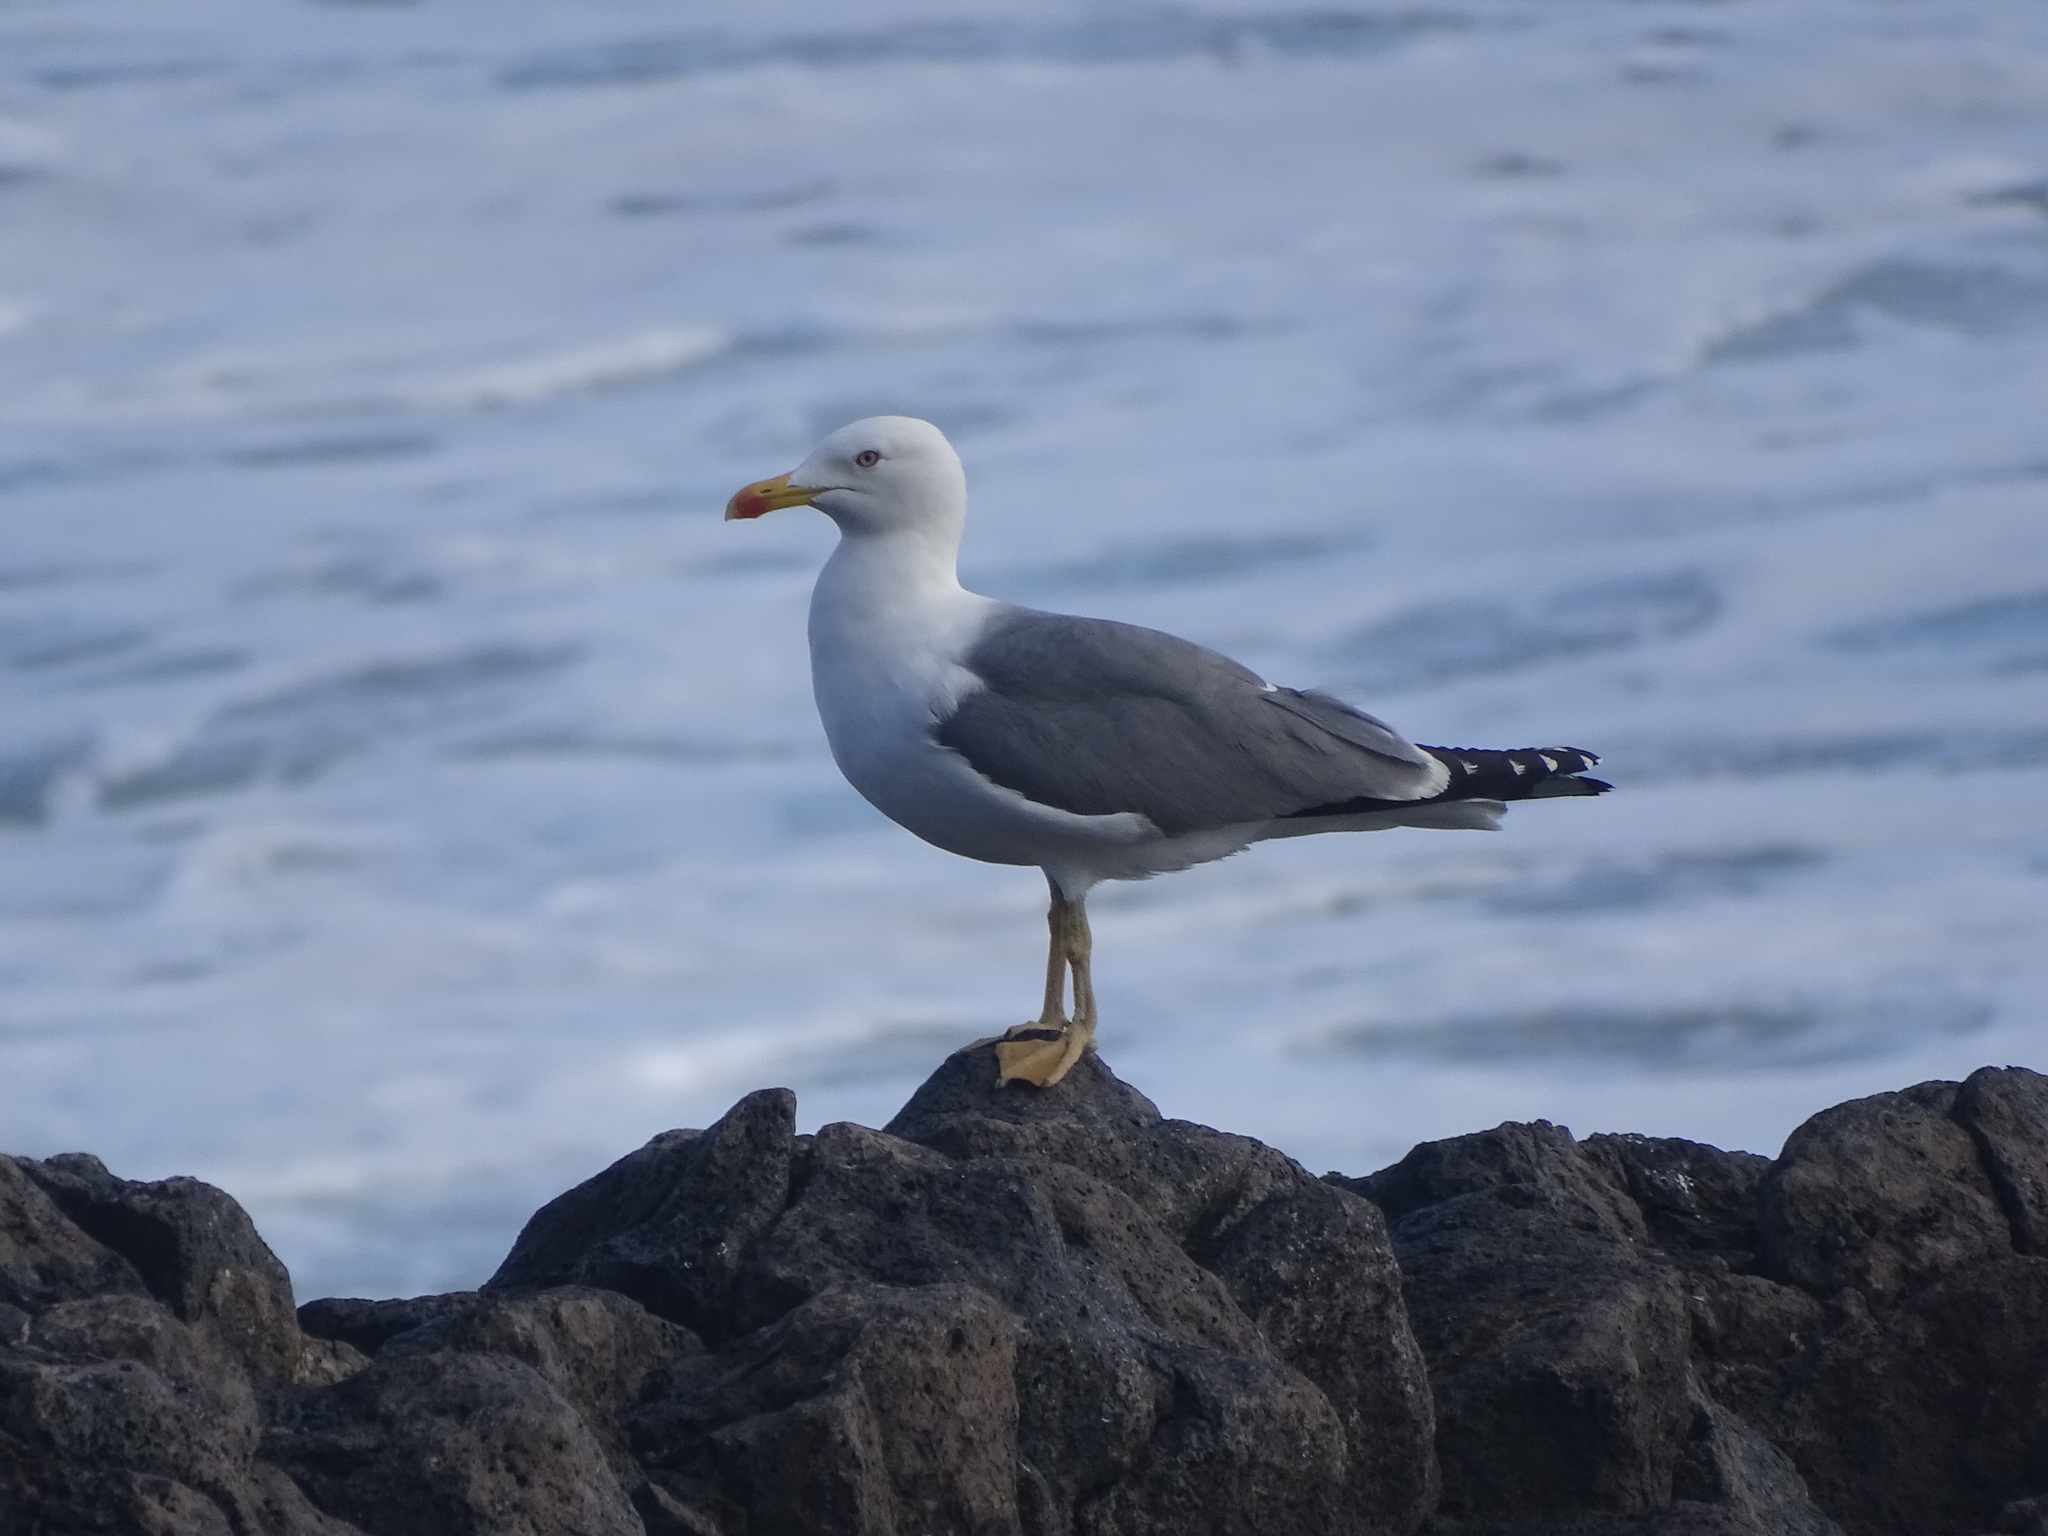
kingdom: Animalia
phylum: Chordata
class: Aves
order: Charadriiformes
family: Laridae
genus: Larus
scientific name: Larus michahellis
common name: Yellow-legged gull
